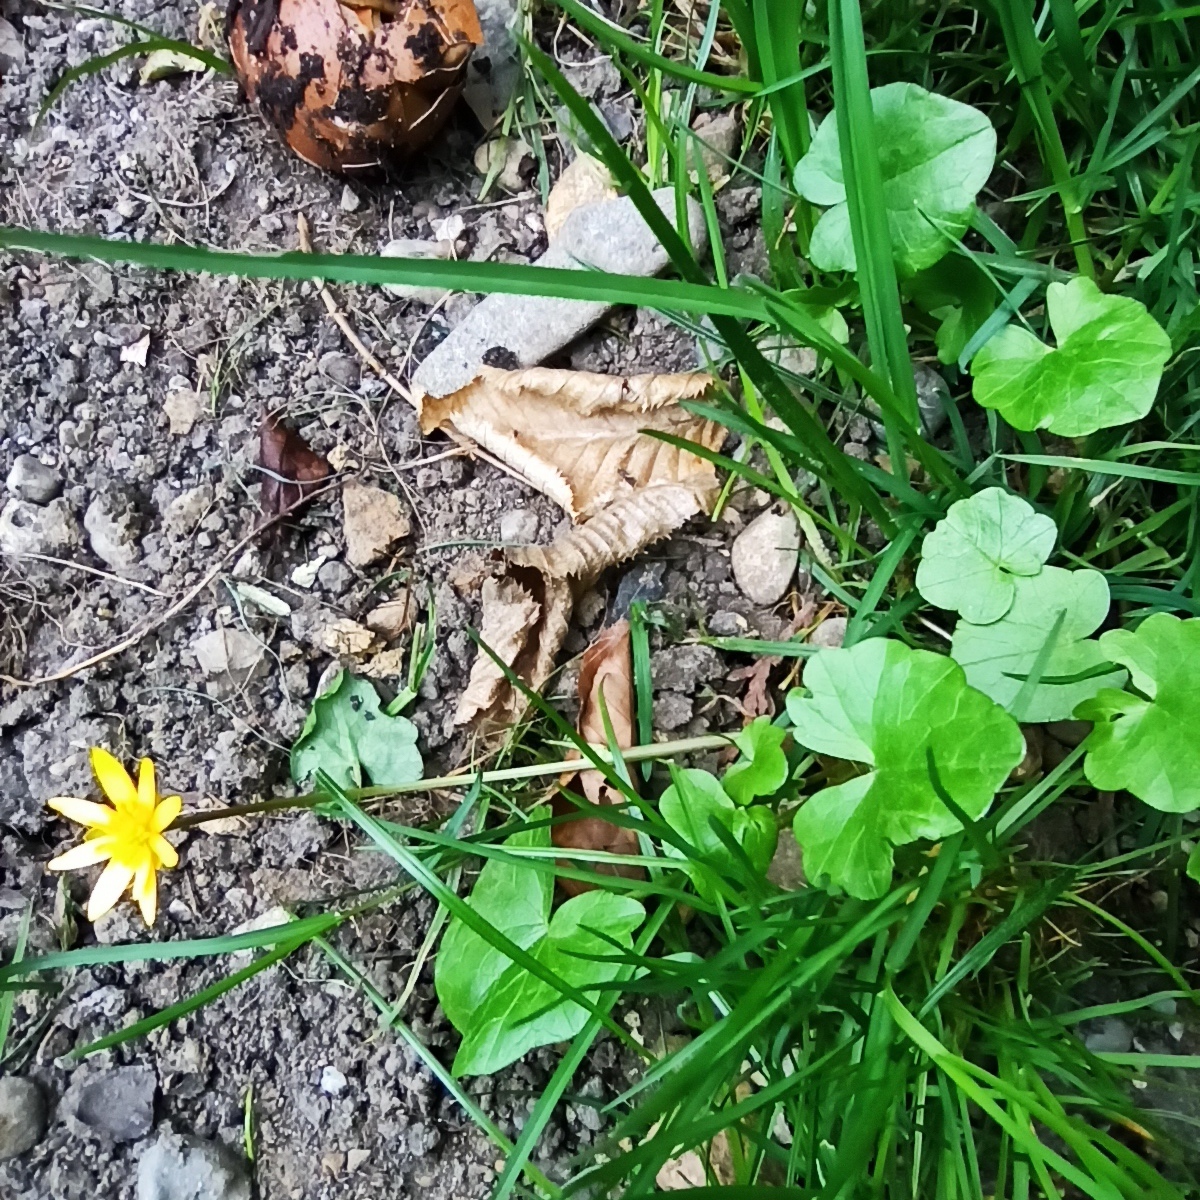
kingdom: Plantae
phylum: Tracheophyta
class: Magnoliopsida
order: Ranunculales
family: Ranunculaceae
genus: Ficaria
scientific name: Ficaria verna
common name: Lesser celandine
